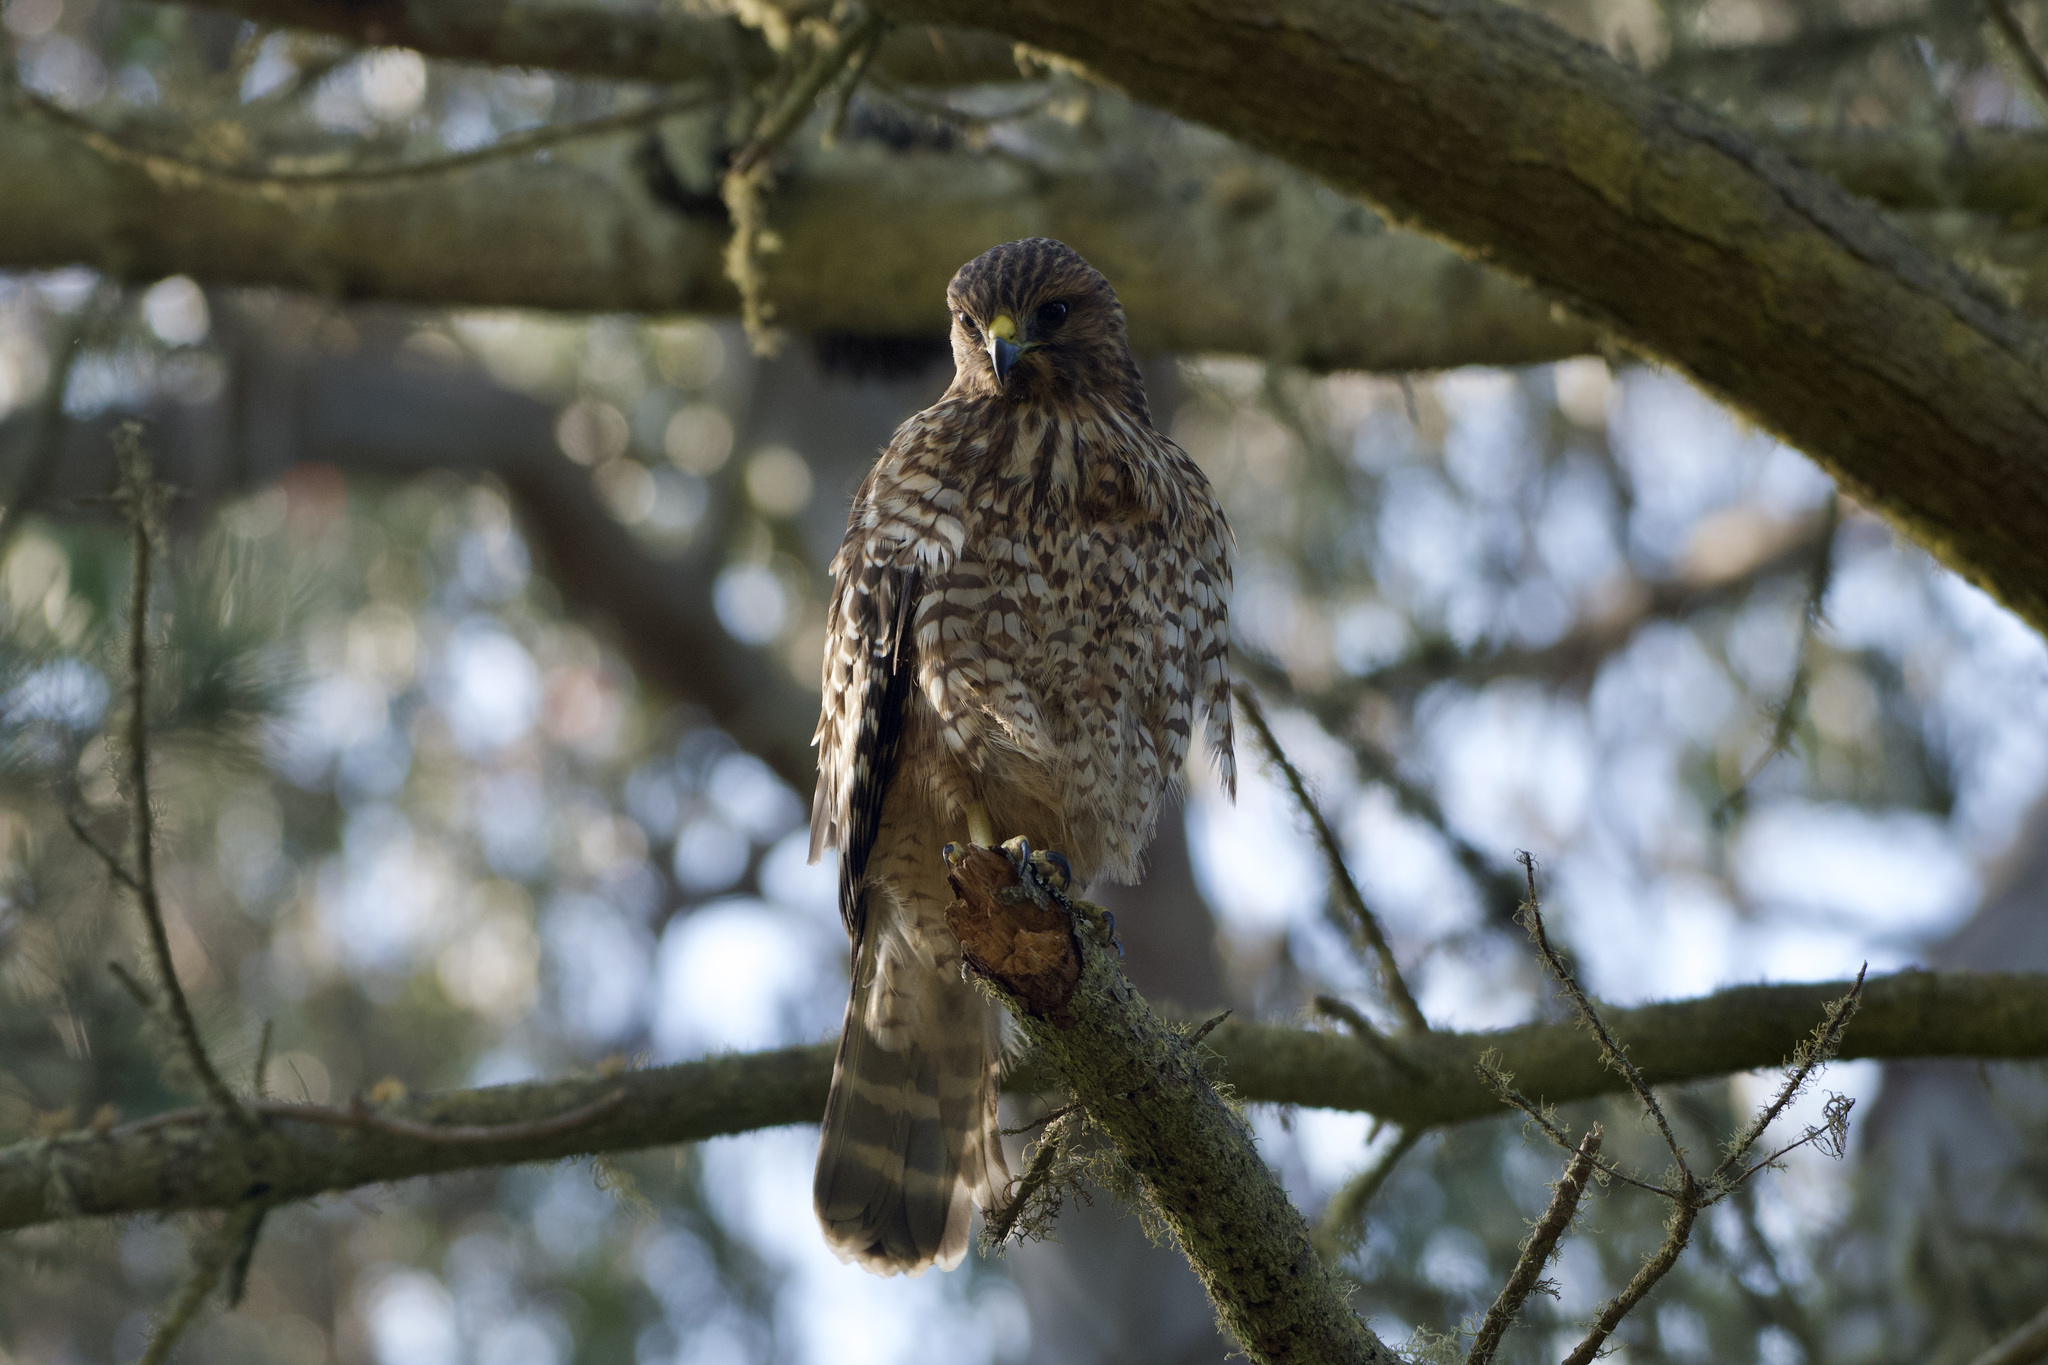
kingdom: Animalia
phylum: Chordata
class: Aves
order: Accipitriformes
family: Accipitridae
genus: Buteo
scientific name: Buteo lineatus
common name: Red-shouldered hawk
